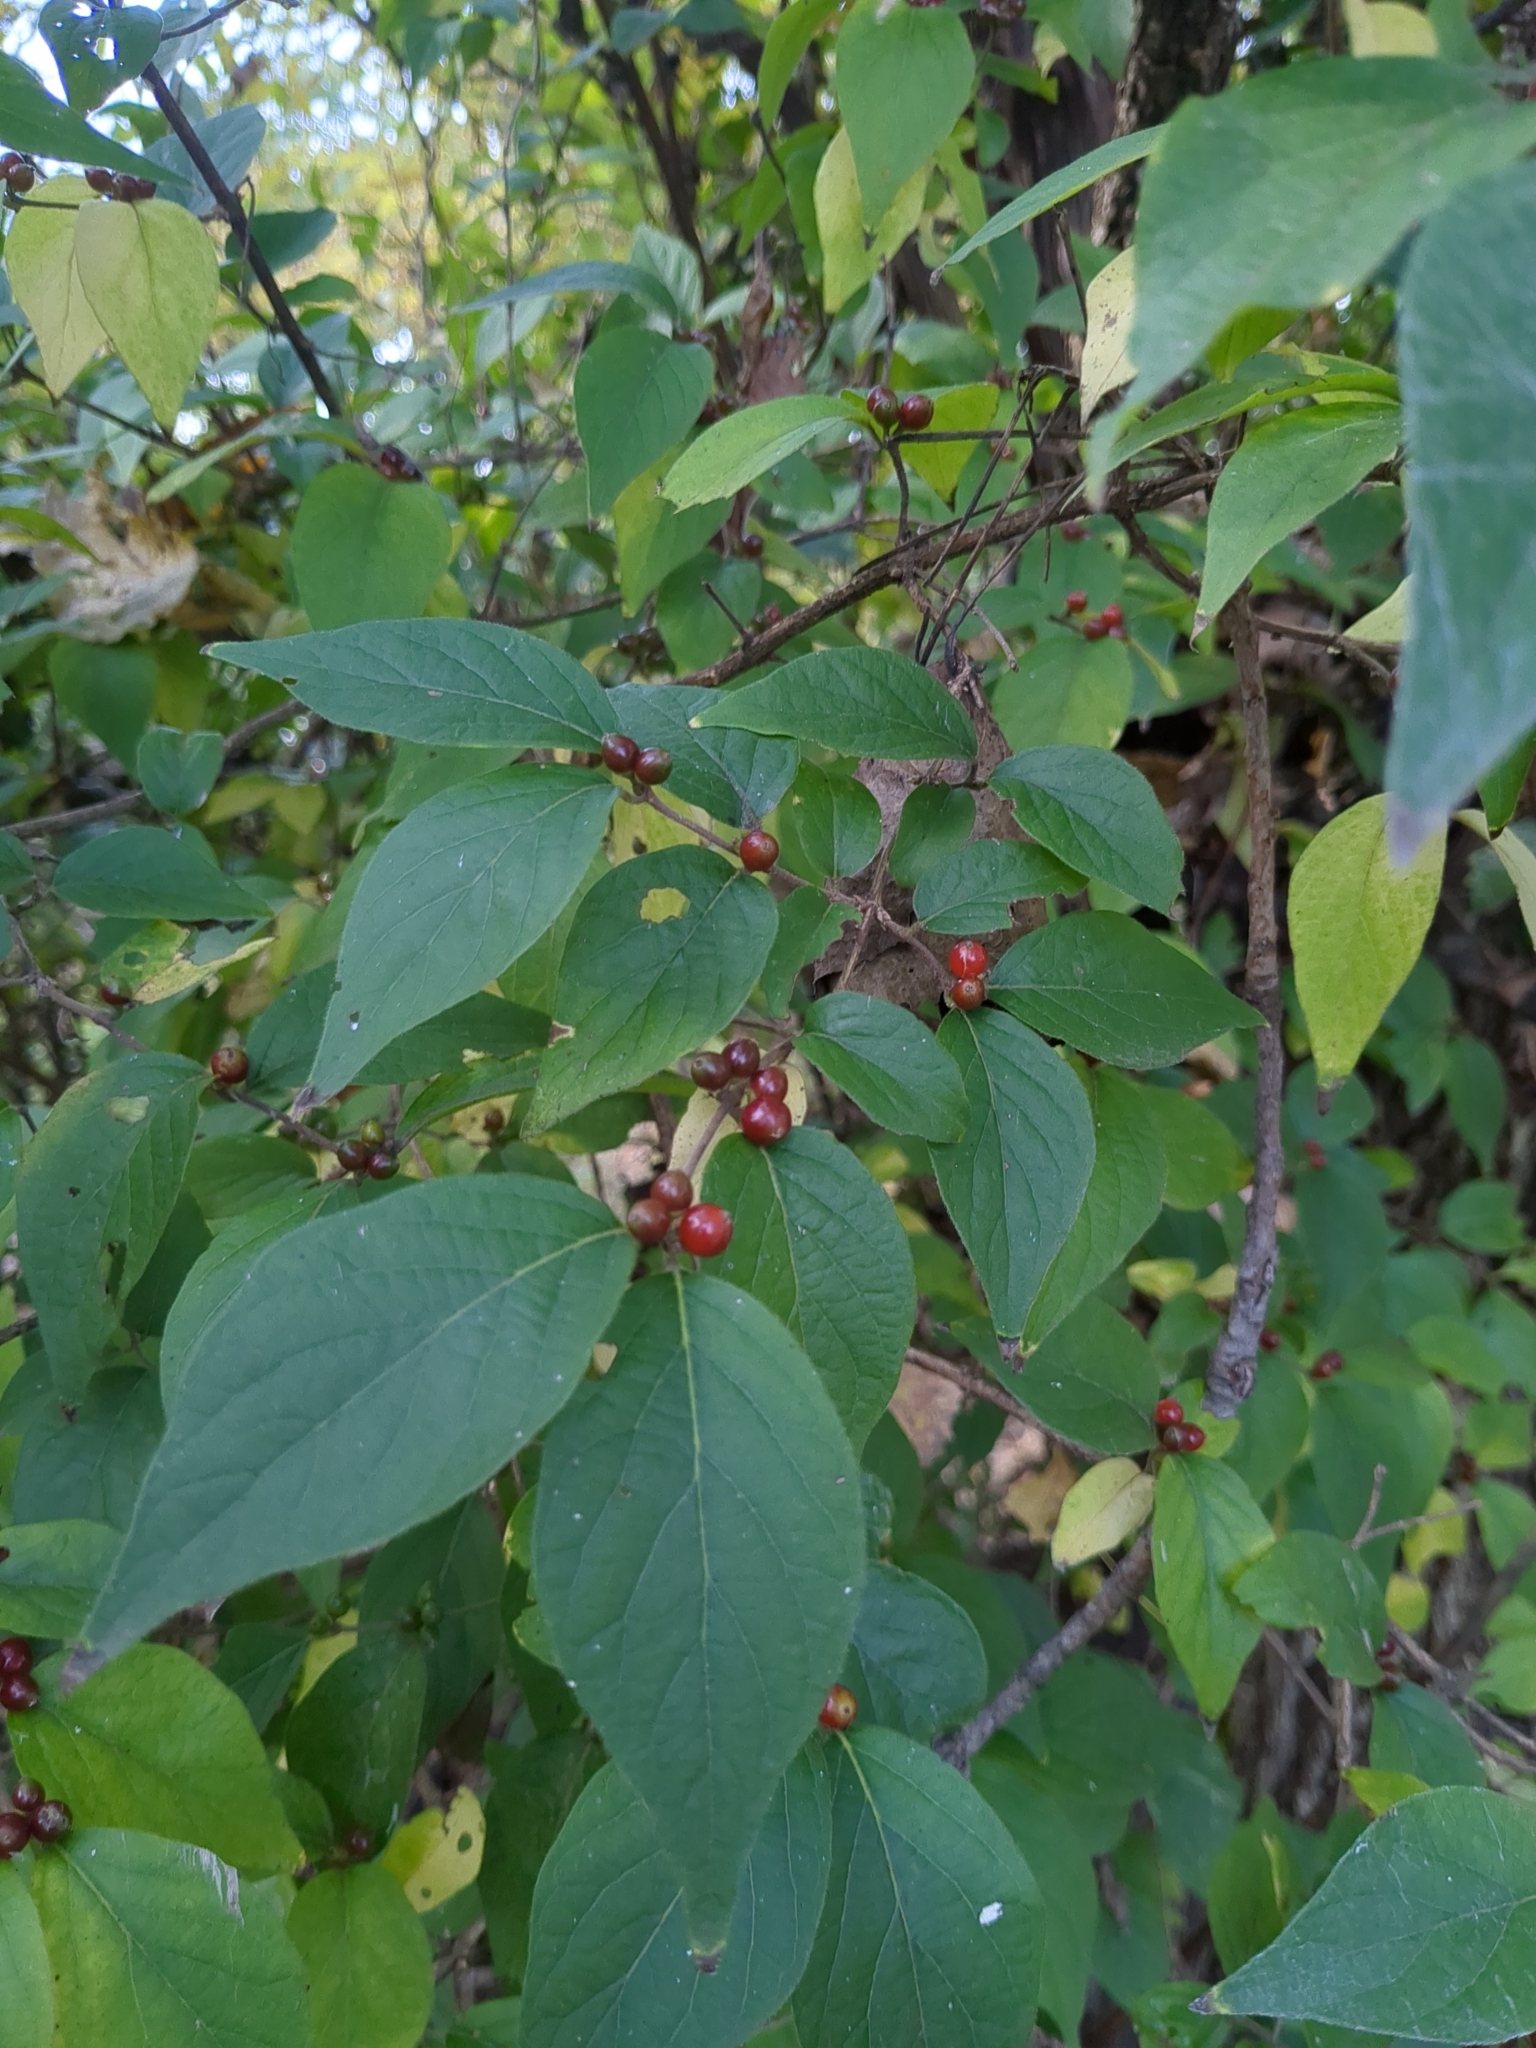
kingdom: Plantae
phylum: Tracheophyta
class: Magnoliopsida
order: Dipsacales
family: Caprifoliaceae
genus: Lonicera
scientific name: Lonicera maackii
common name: Amur honeysuckle
